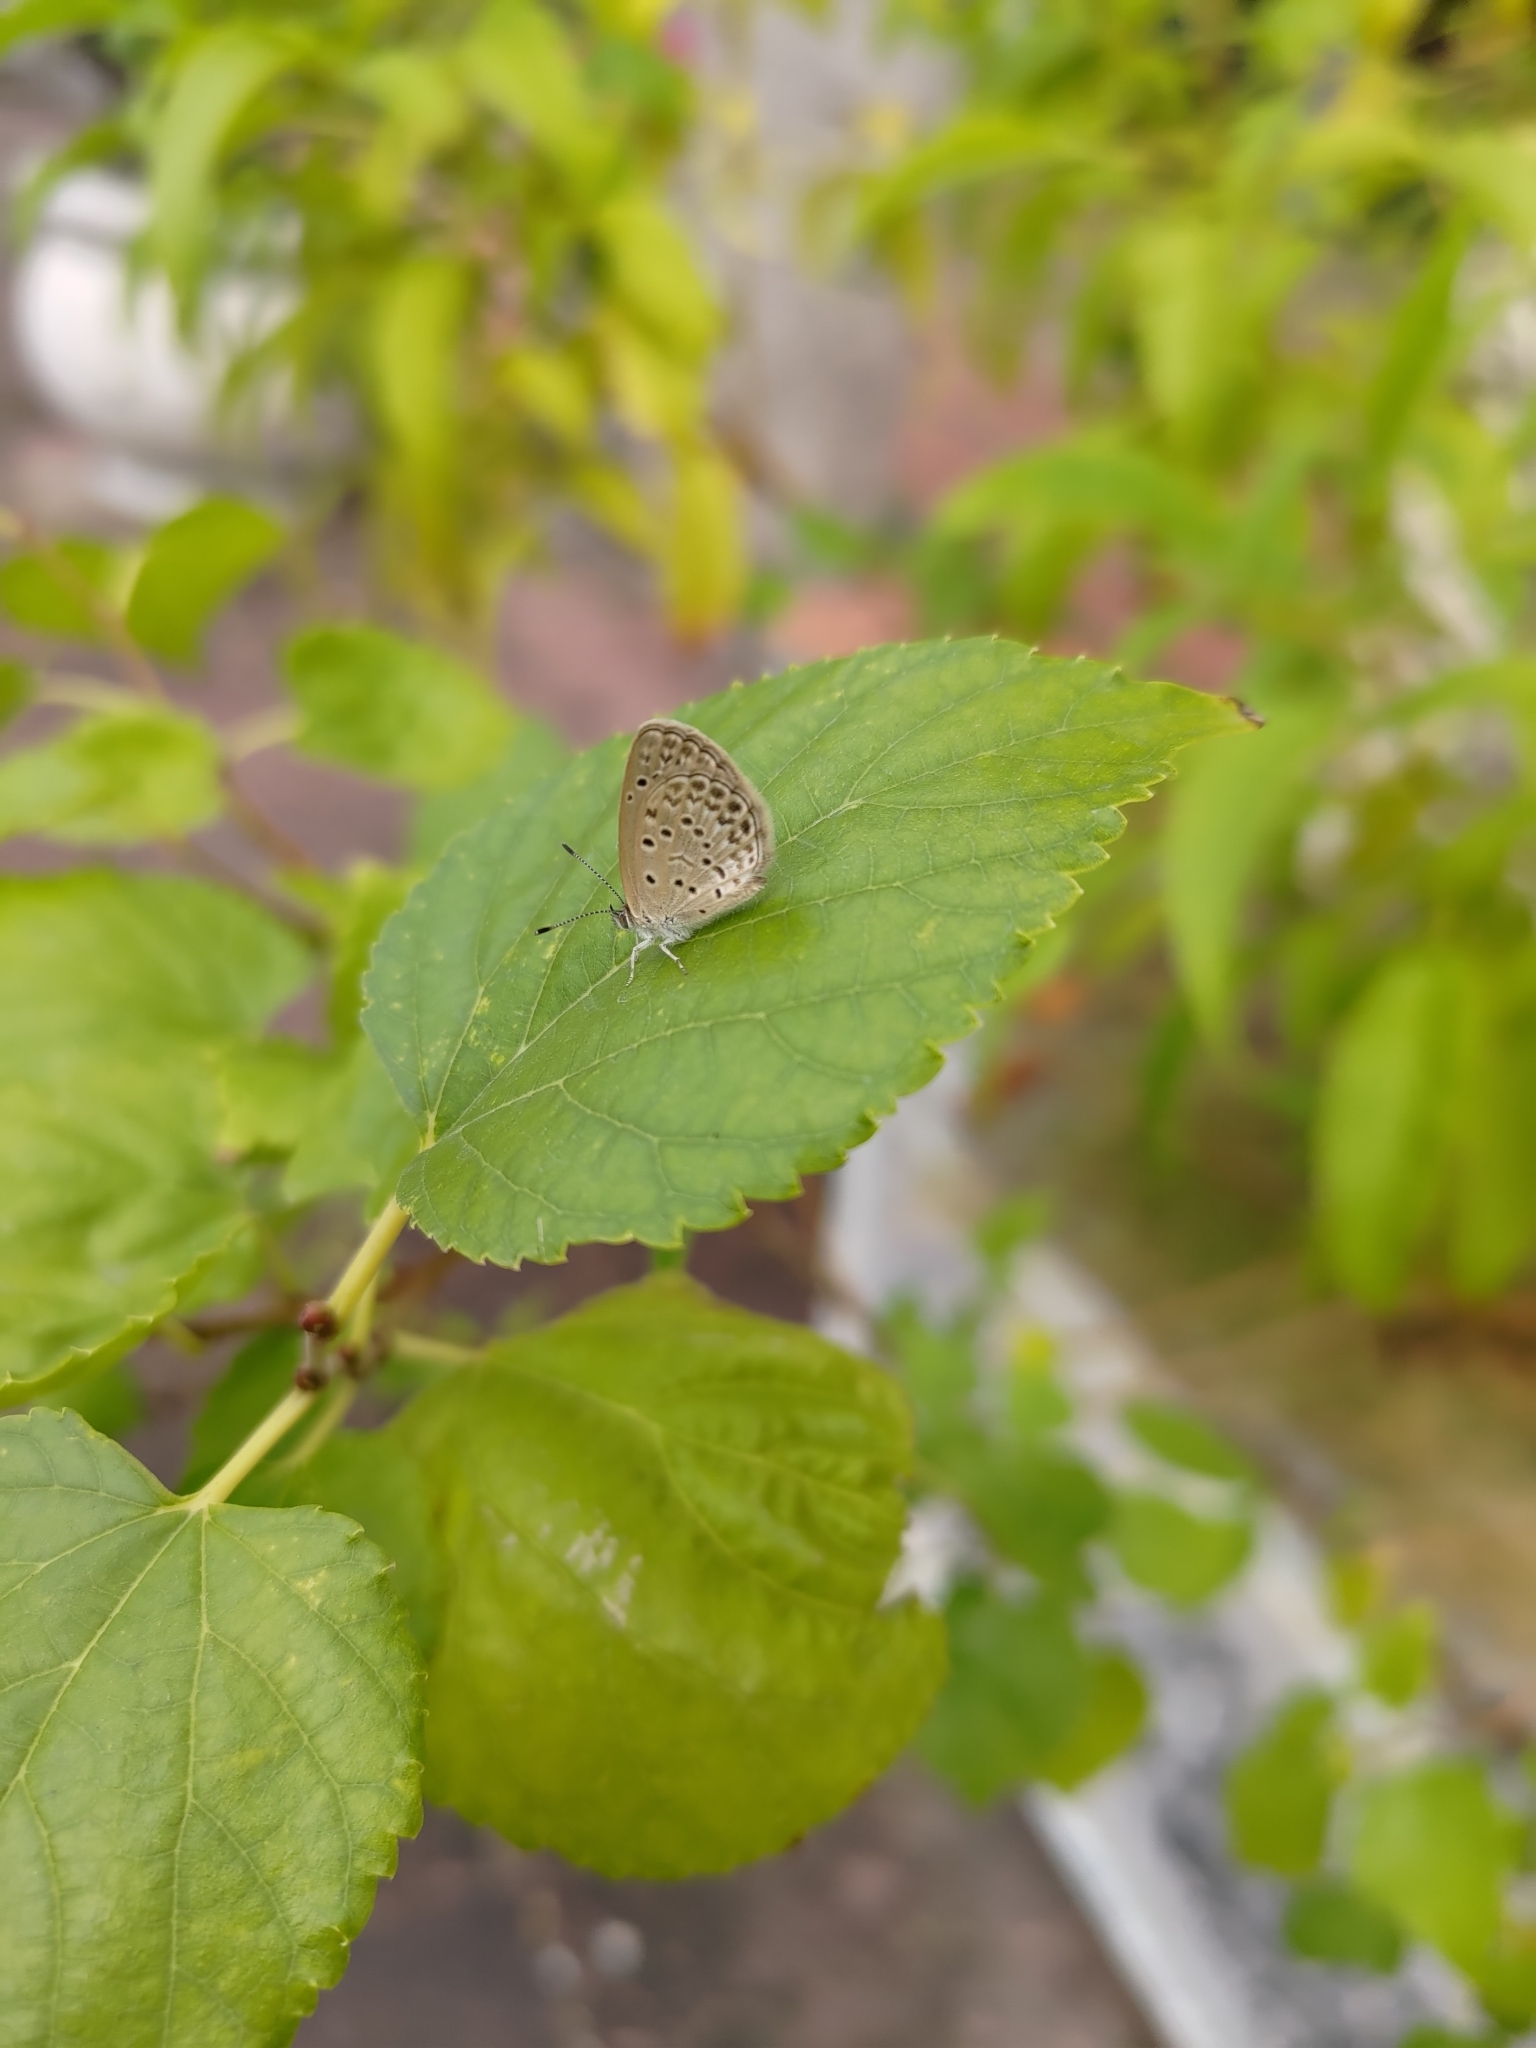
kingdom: Animalia
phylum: Arthropoda
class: Insecta
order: Lepidoptera
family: Lycaenidae
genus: Pseudozizeeria
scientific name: Pseudozizeeria maha
